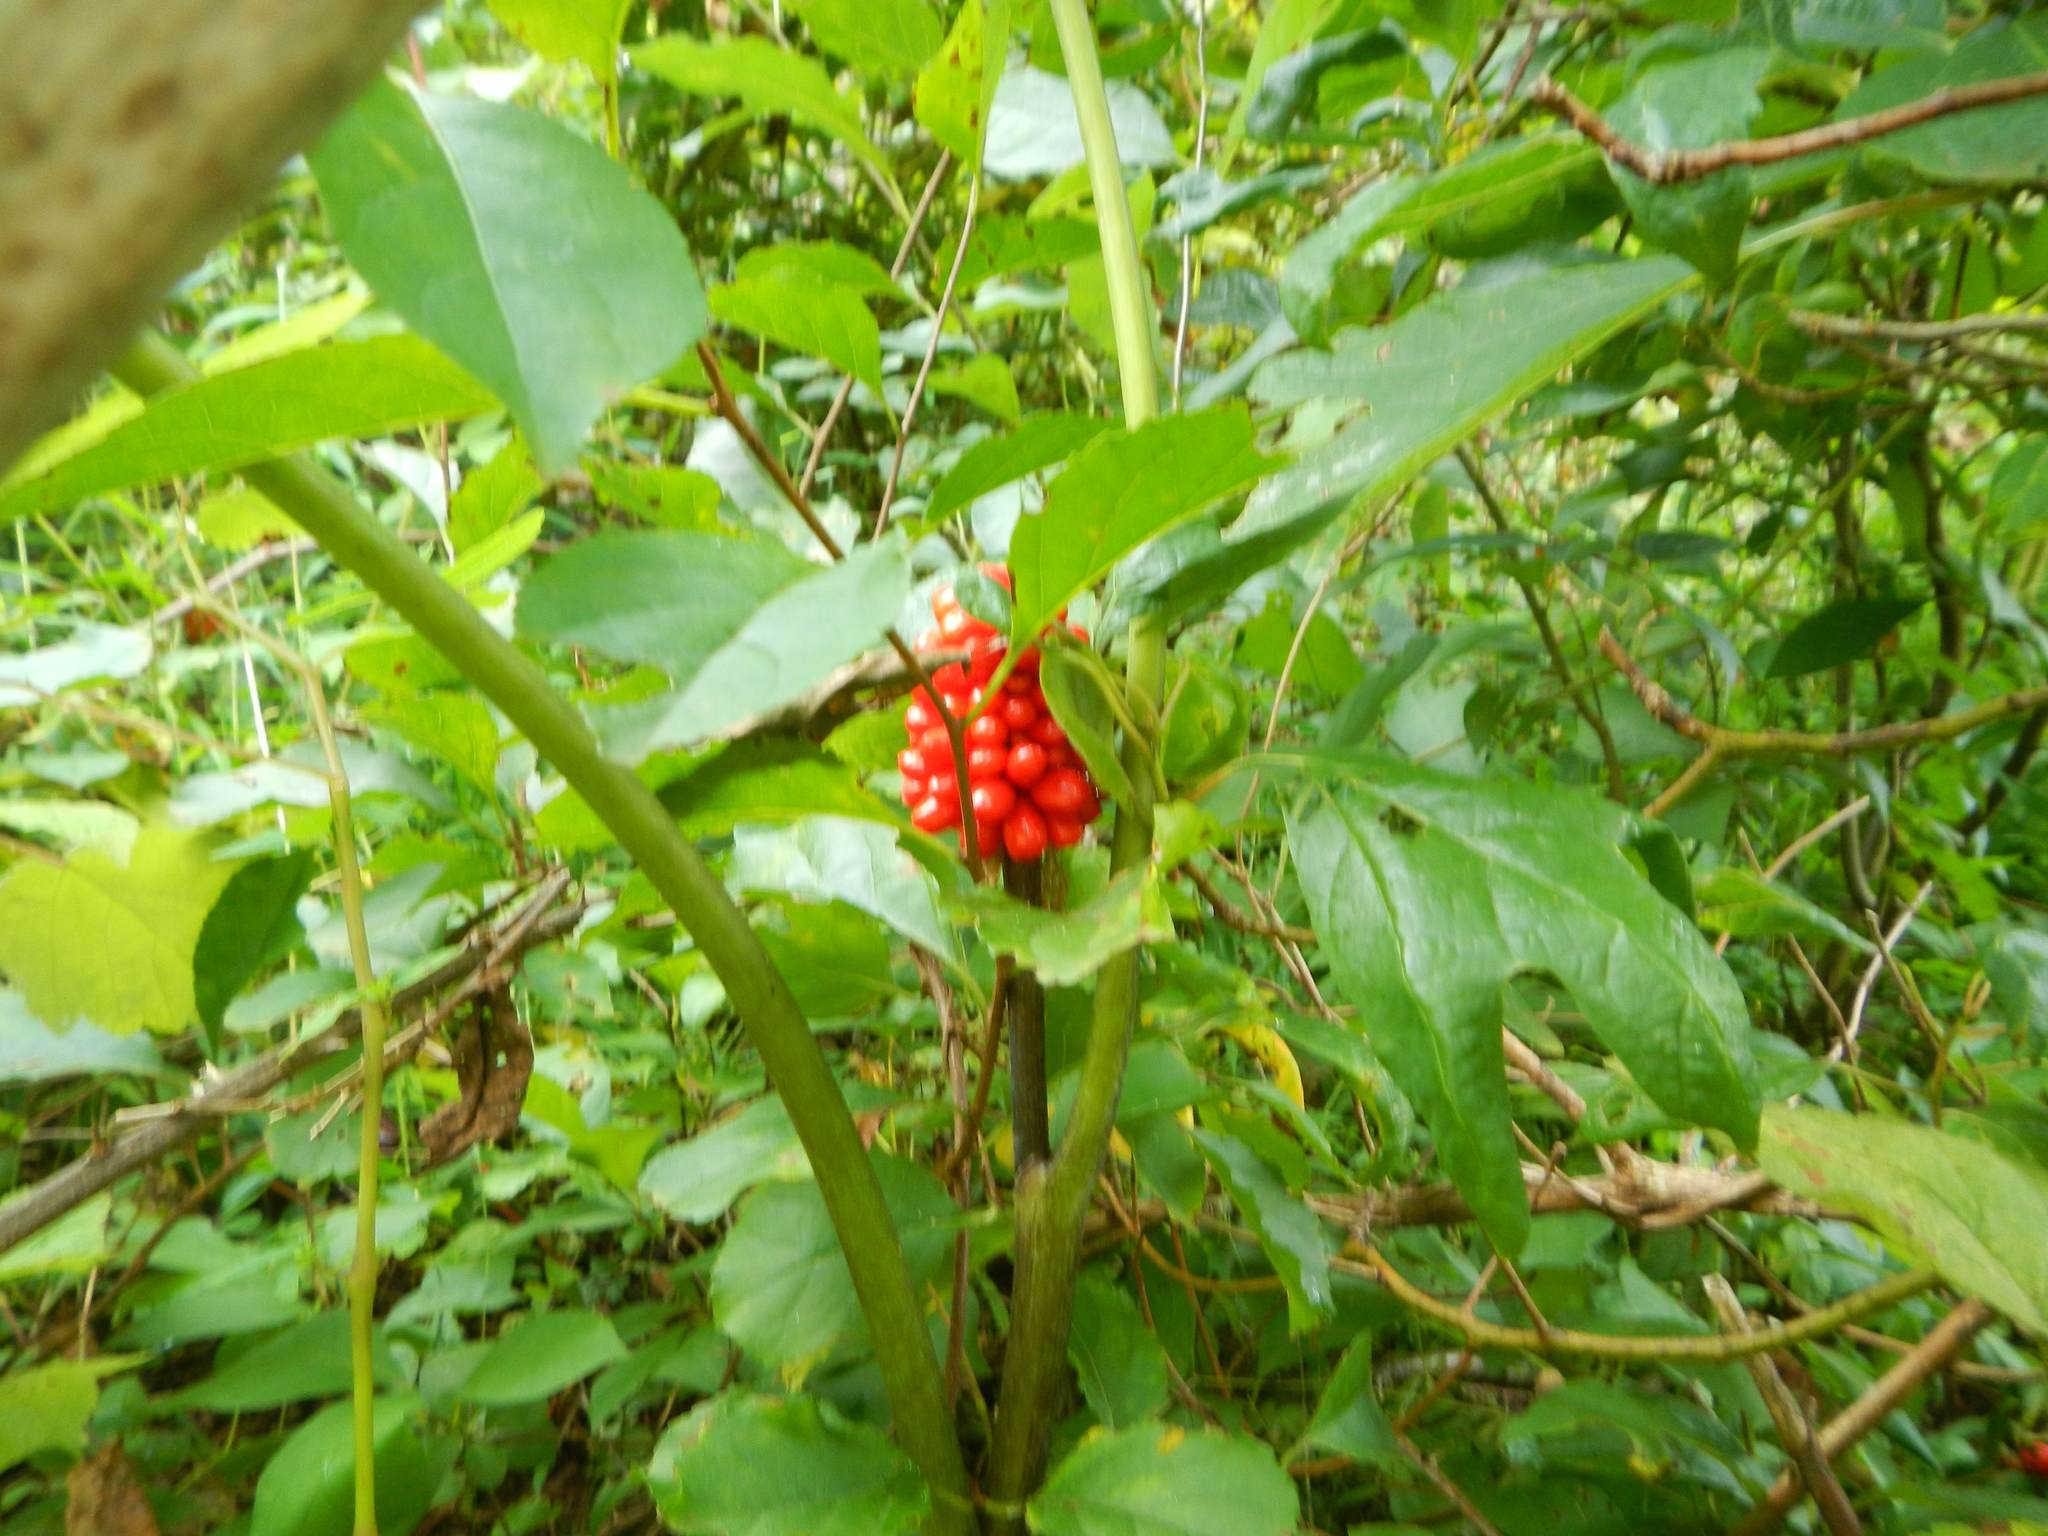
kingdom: Plantae
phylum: Tracheophyta
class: Liliopsida
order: Alismatales
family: Araceae
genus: Arisaema
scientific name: Arisaema triphyllum
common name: Jack-in-the-pulpit
